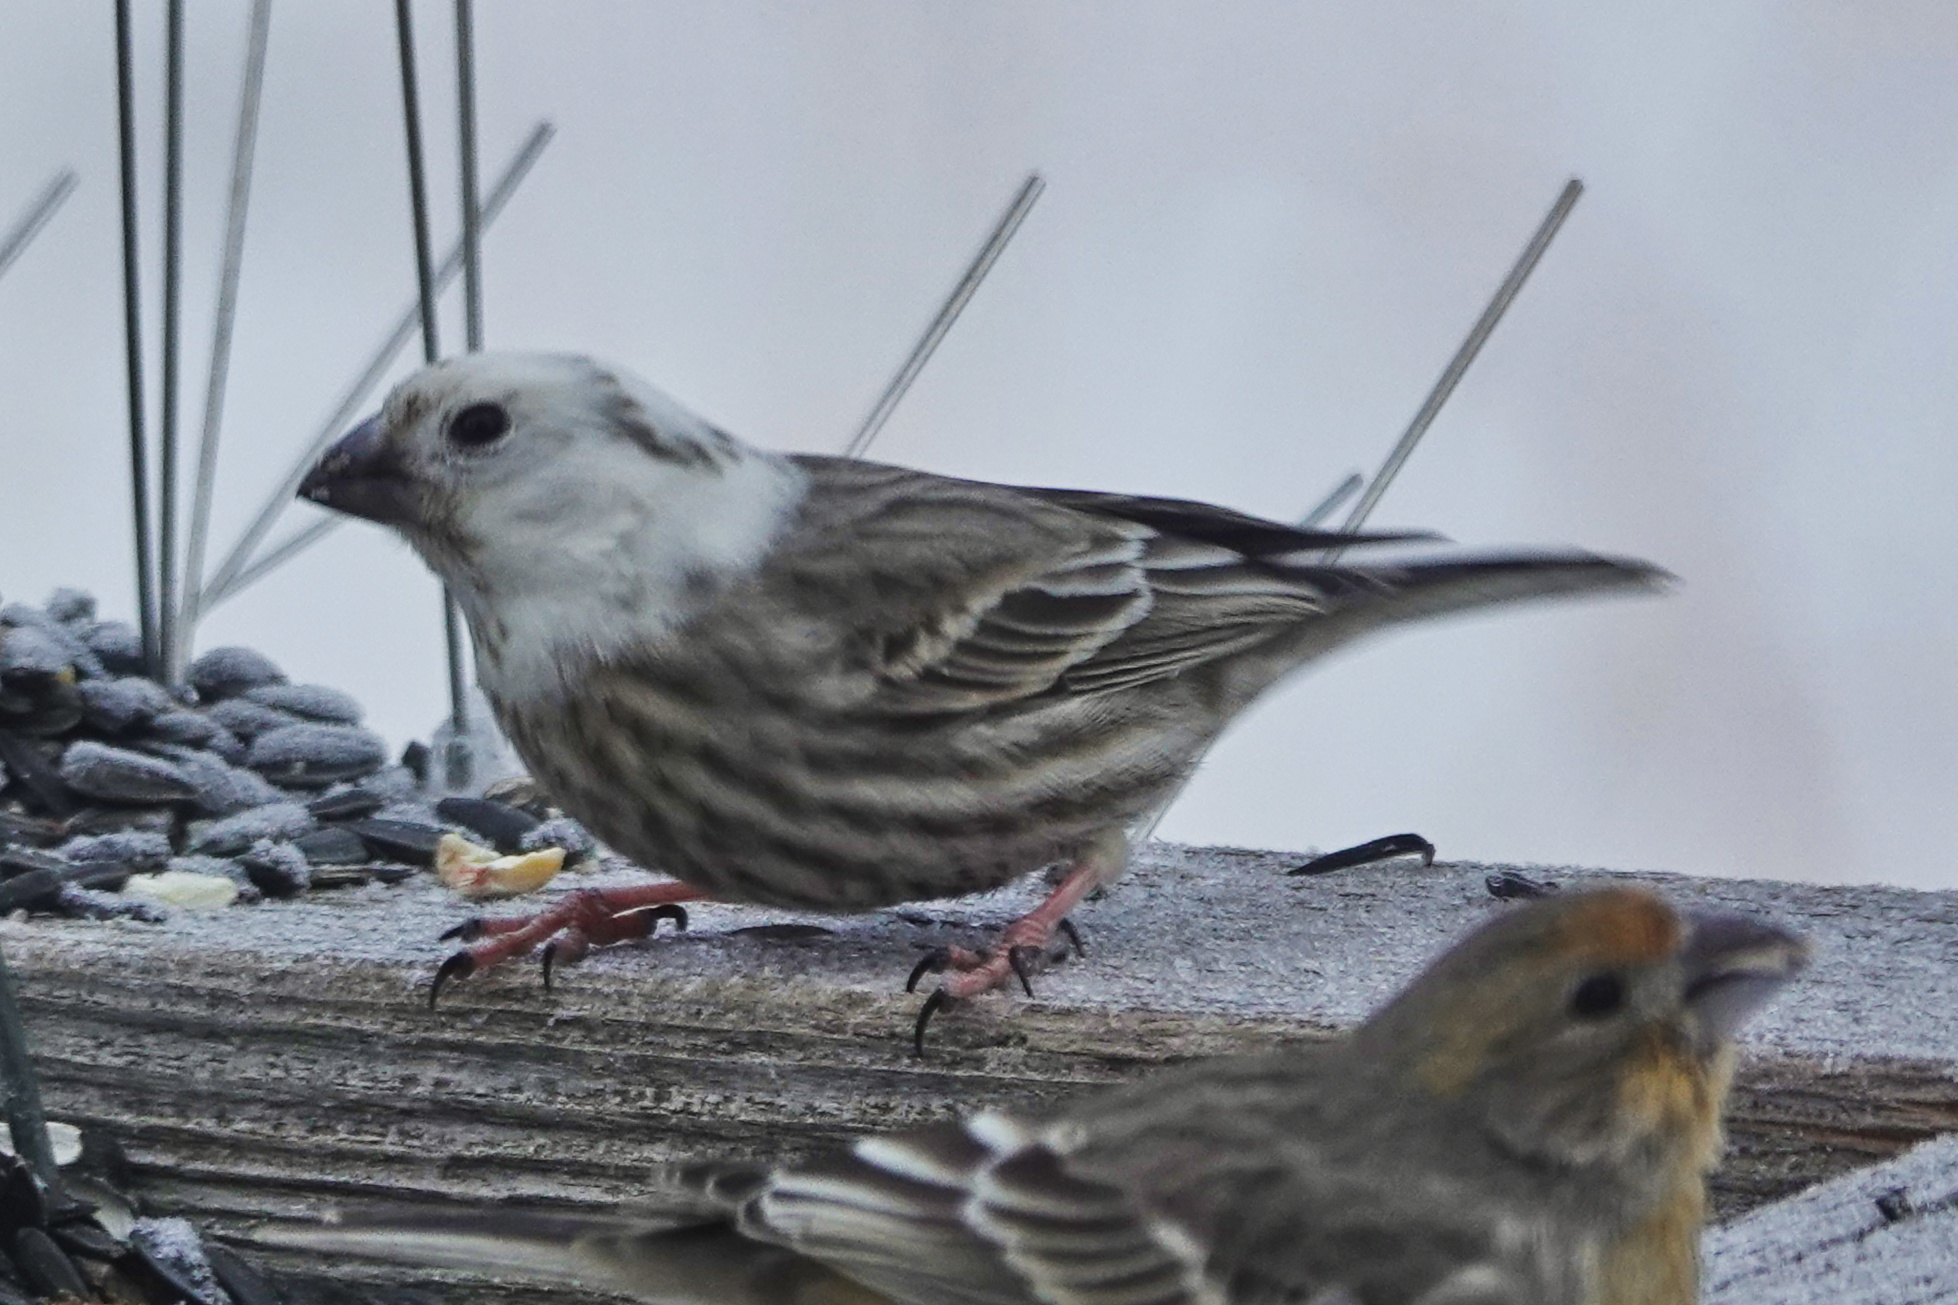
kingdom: Animalia
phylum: Chordata
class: Aves
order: Passeriformes
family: Fringillidae
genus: Haemorhous
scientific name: Haemorhous mexicanus
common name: House finch
